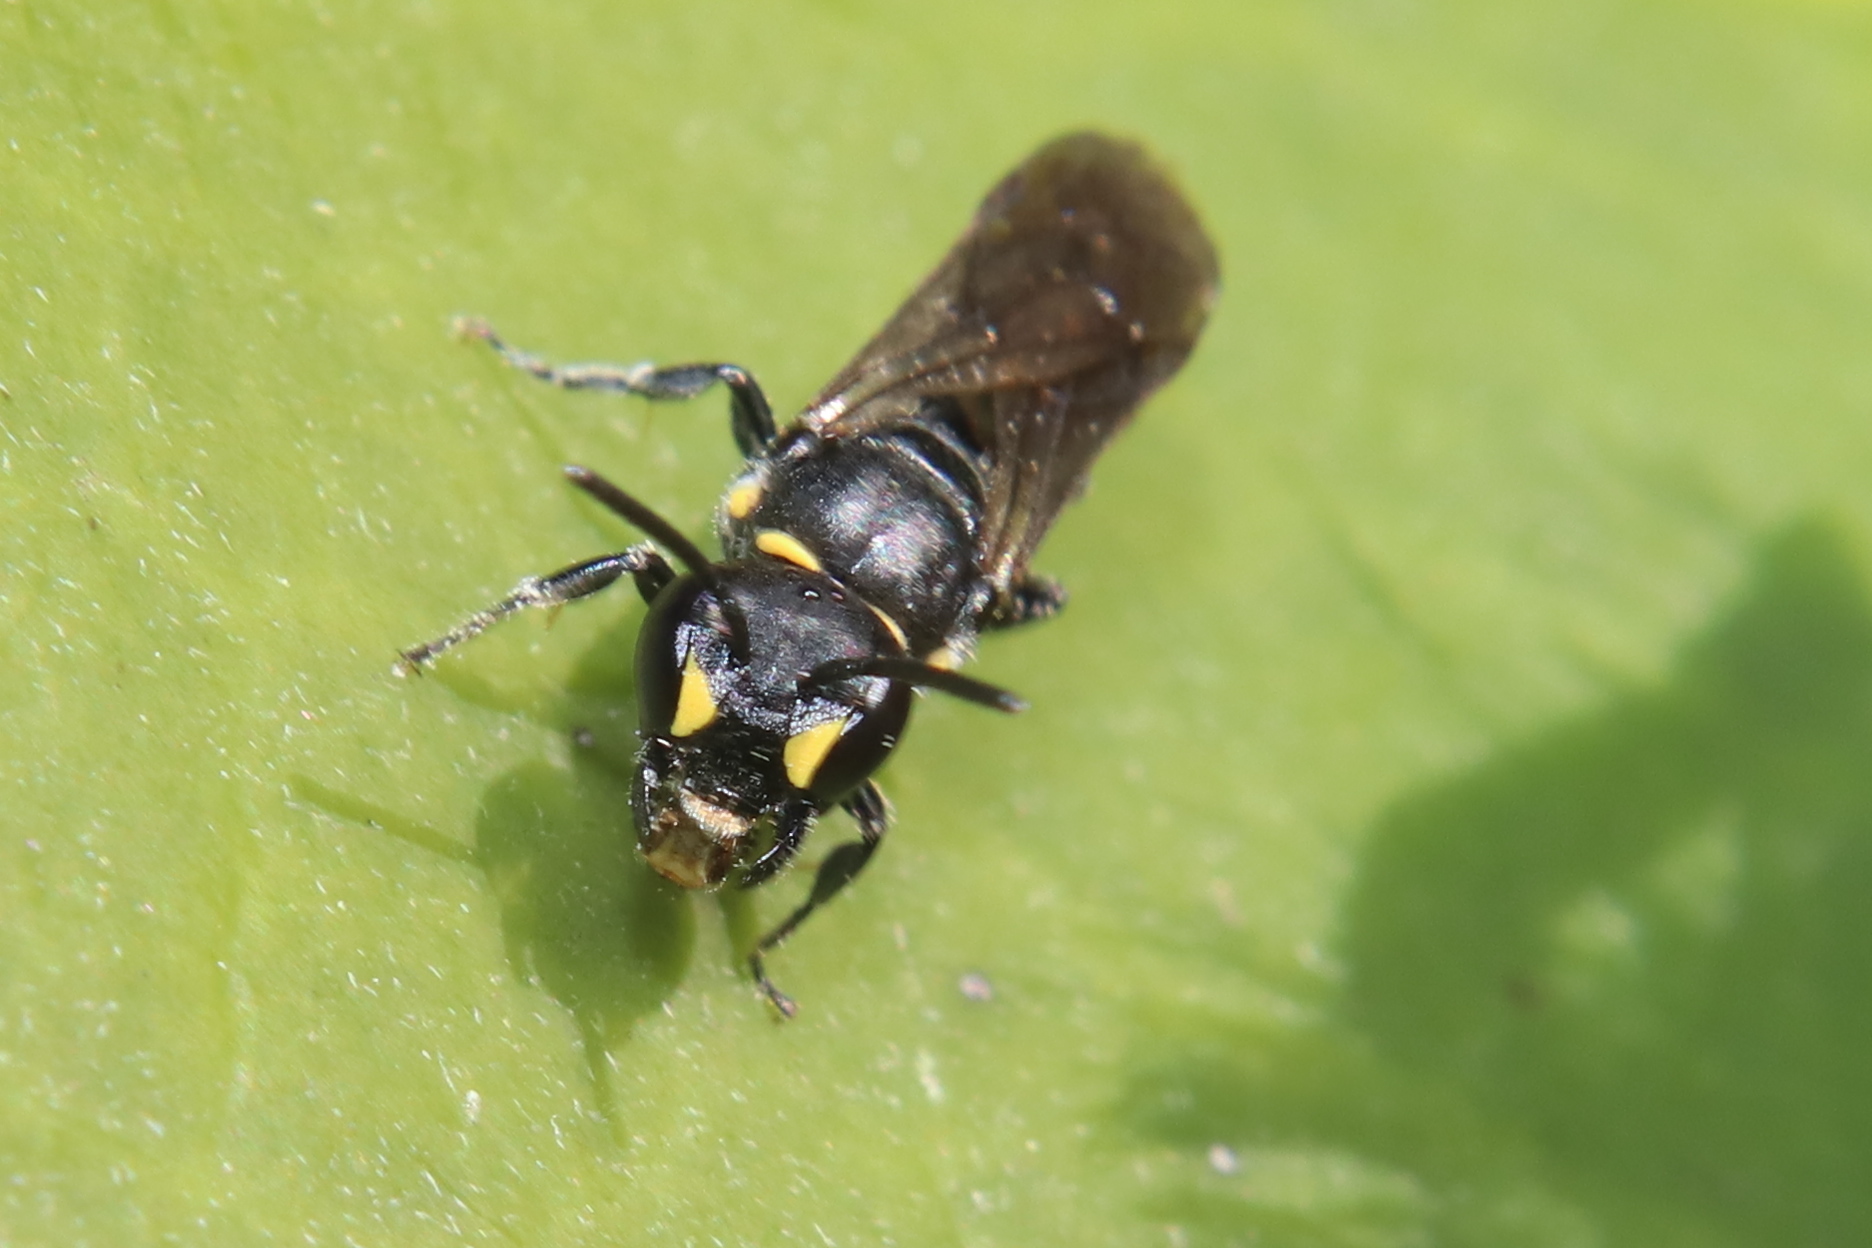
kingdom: Animalia
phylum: Arthropoda
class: Insecta
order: Hymenoptera
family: Colletidae
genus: Hylaeus
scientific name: Hylaeus relegatus
